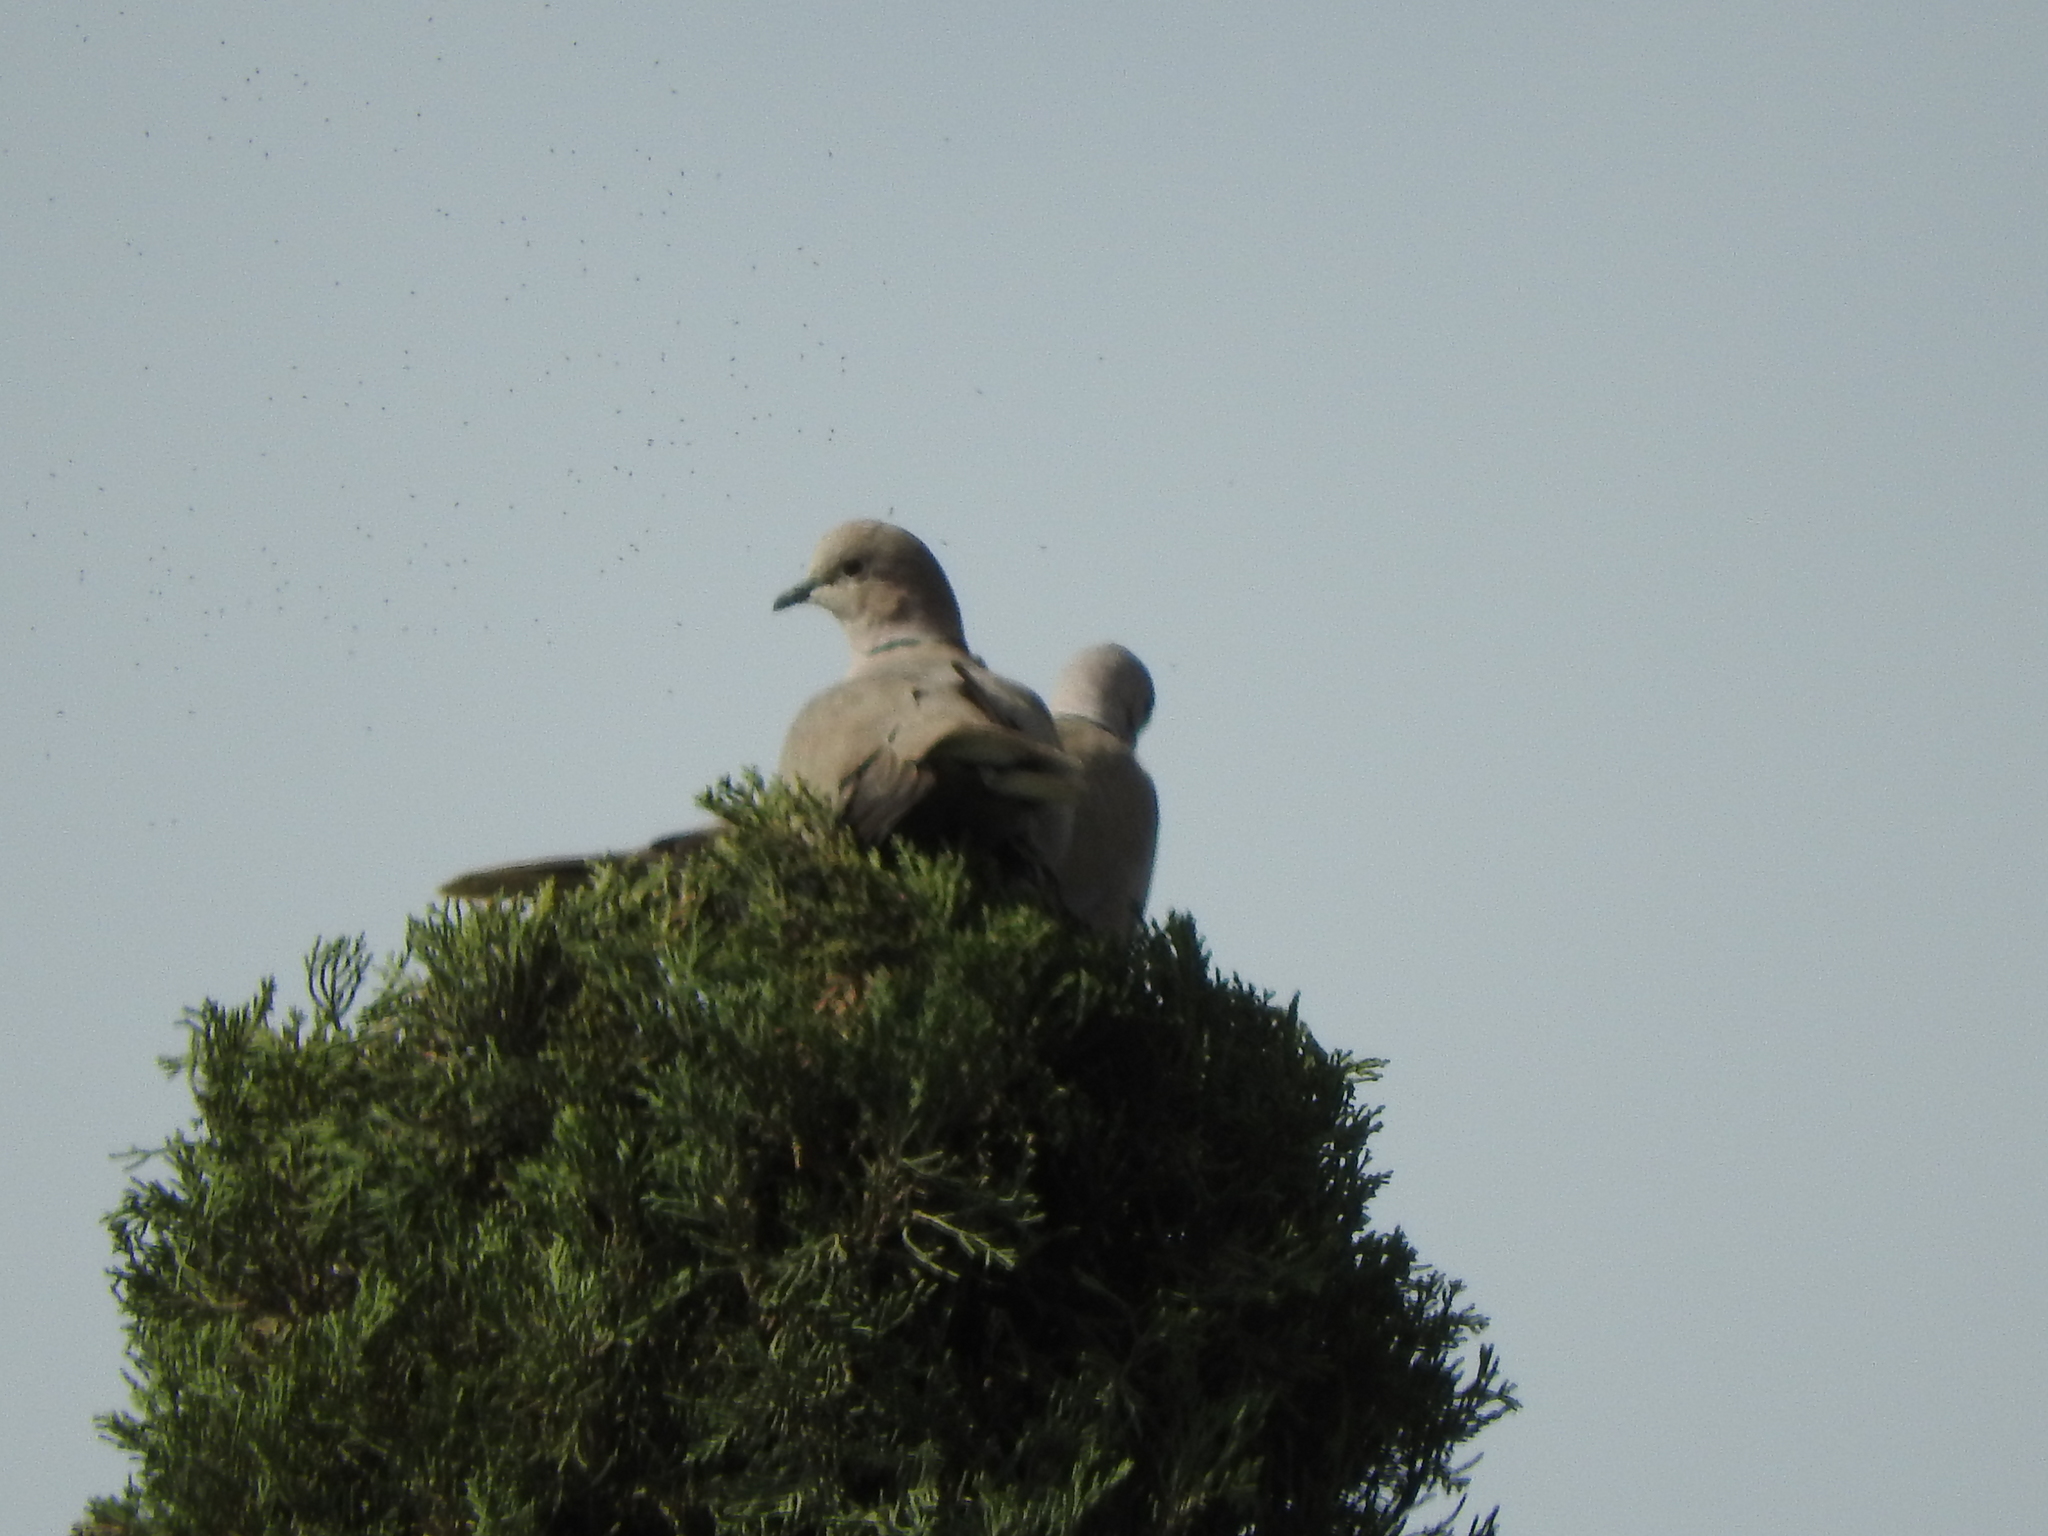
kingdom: Animalia
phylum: Chordata
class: Aves
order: Columbiformes
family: Columbidae
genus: Streptopelia
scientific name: Streptopelia decaocto
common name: Eurasian collared dove
